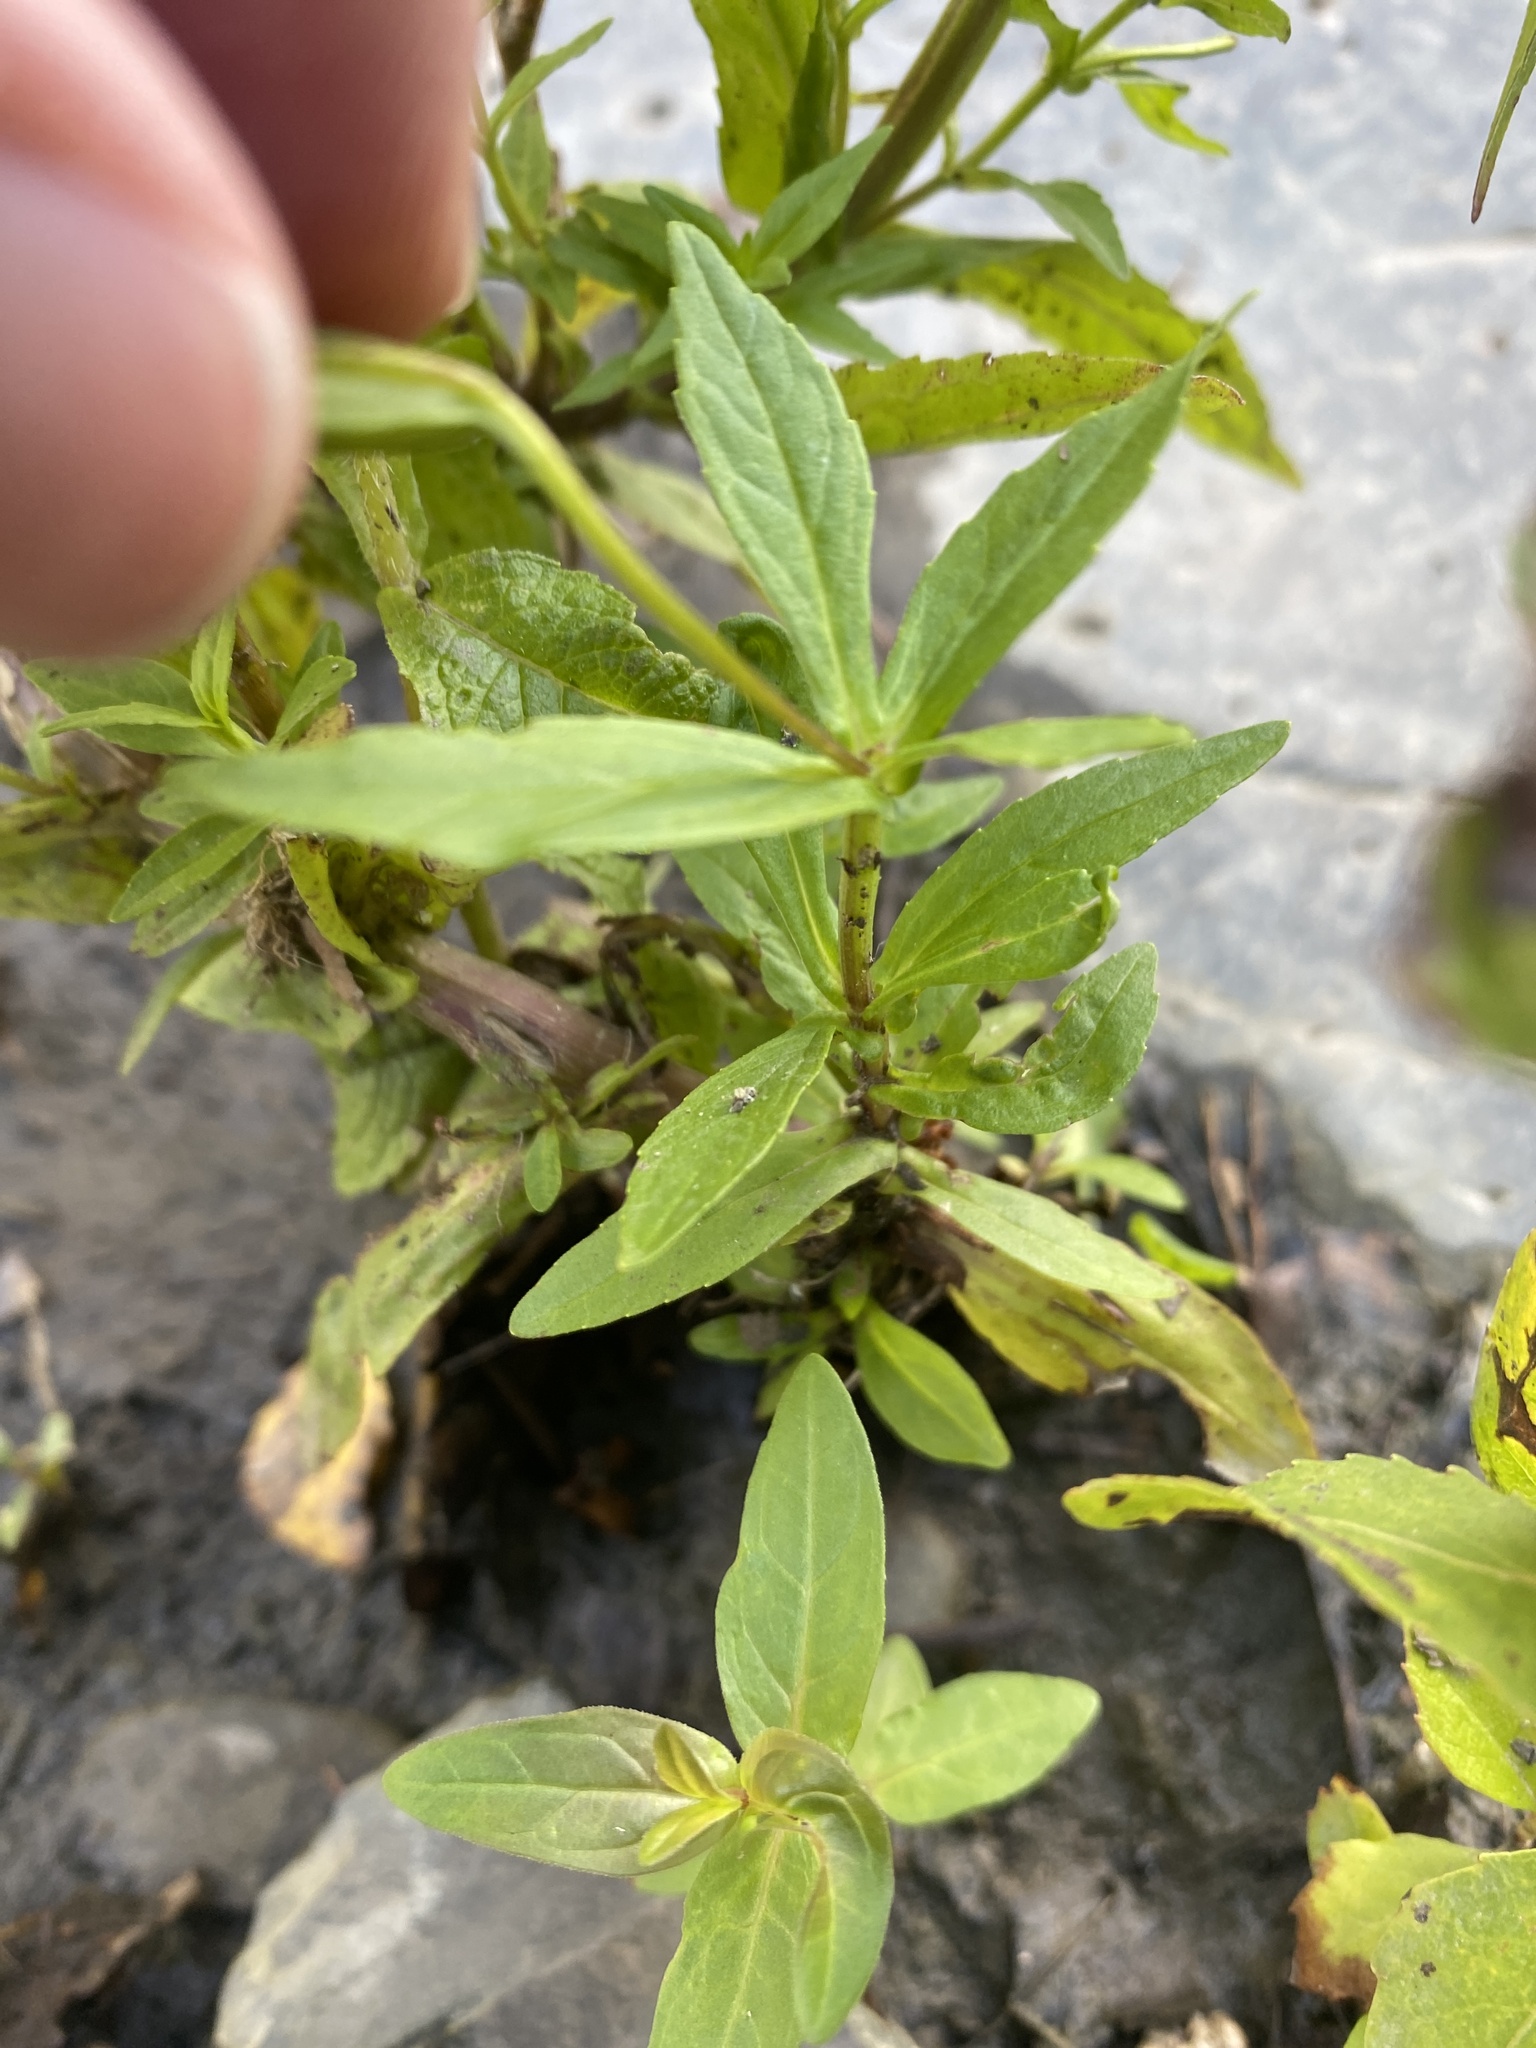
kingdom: Plantae
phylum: Tracheophyta
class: Magnoliopsida
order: Lamiales
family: Phrymaceae
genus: Mimulus
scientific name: Mimulus ringens
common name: Allegheny monkeyflower
